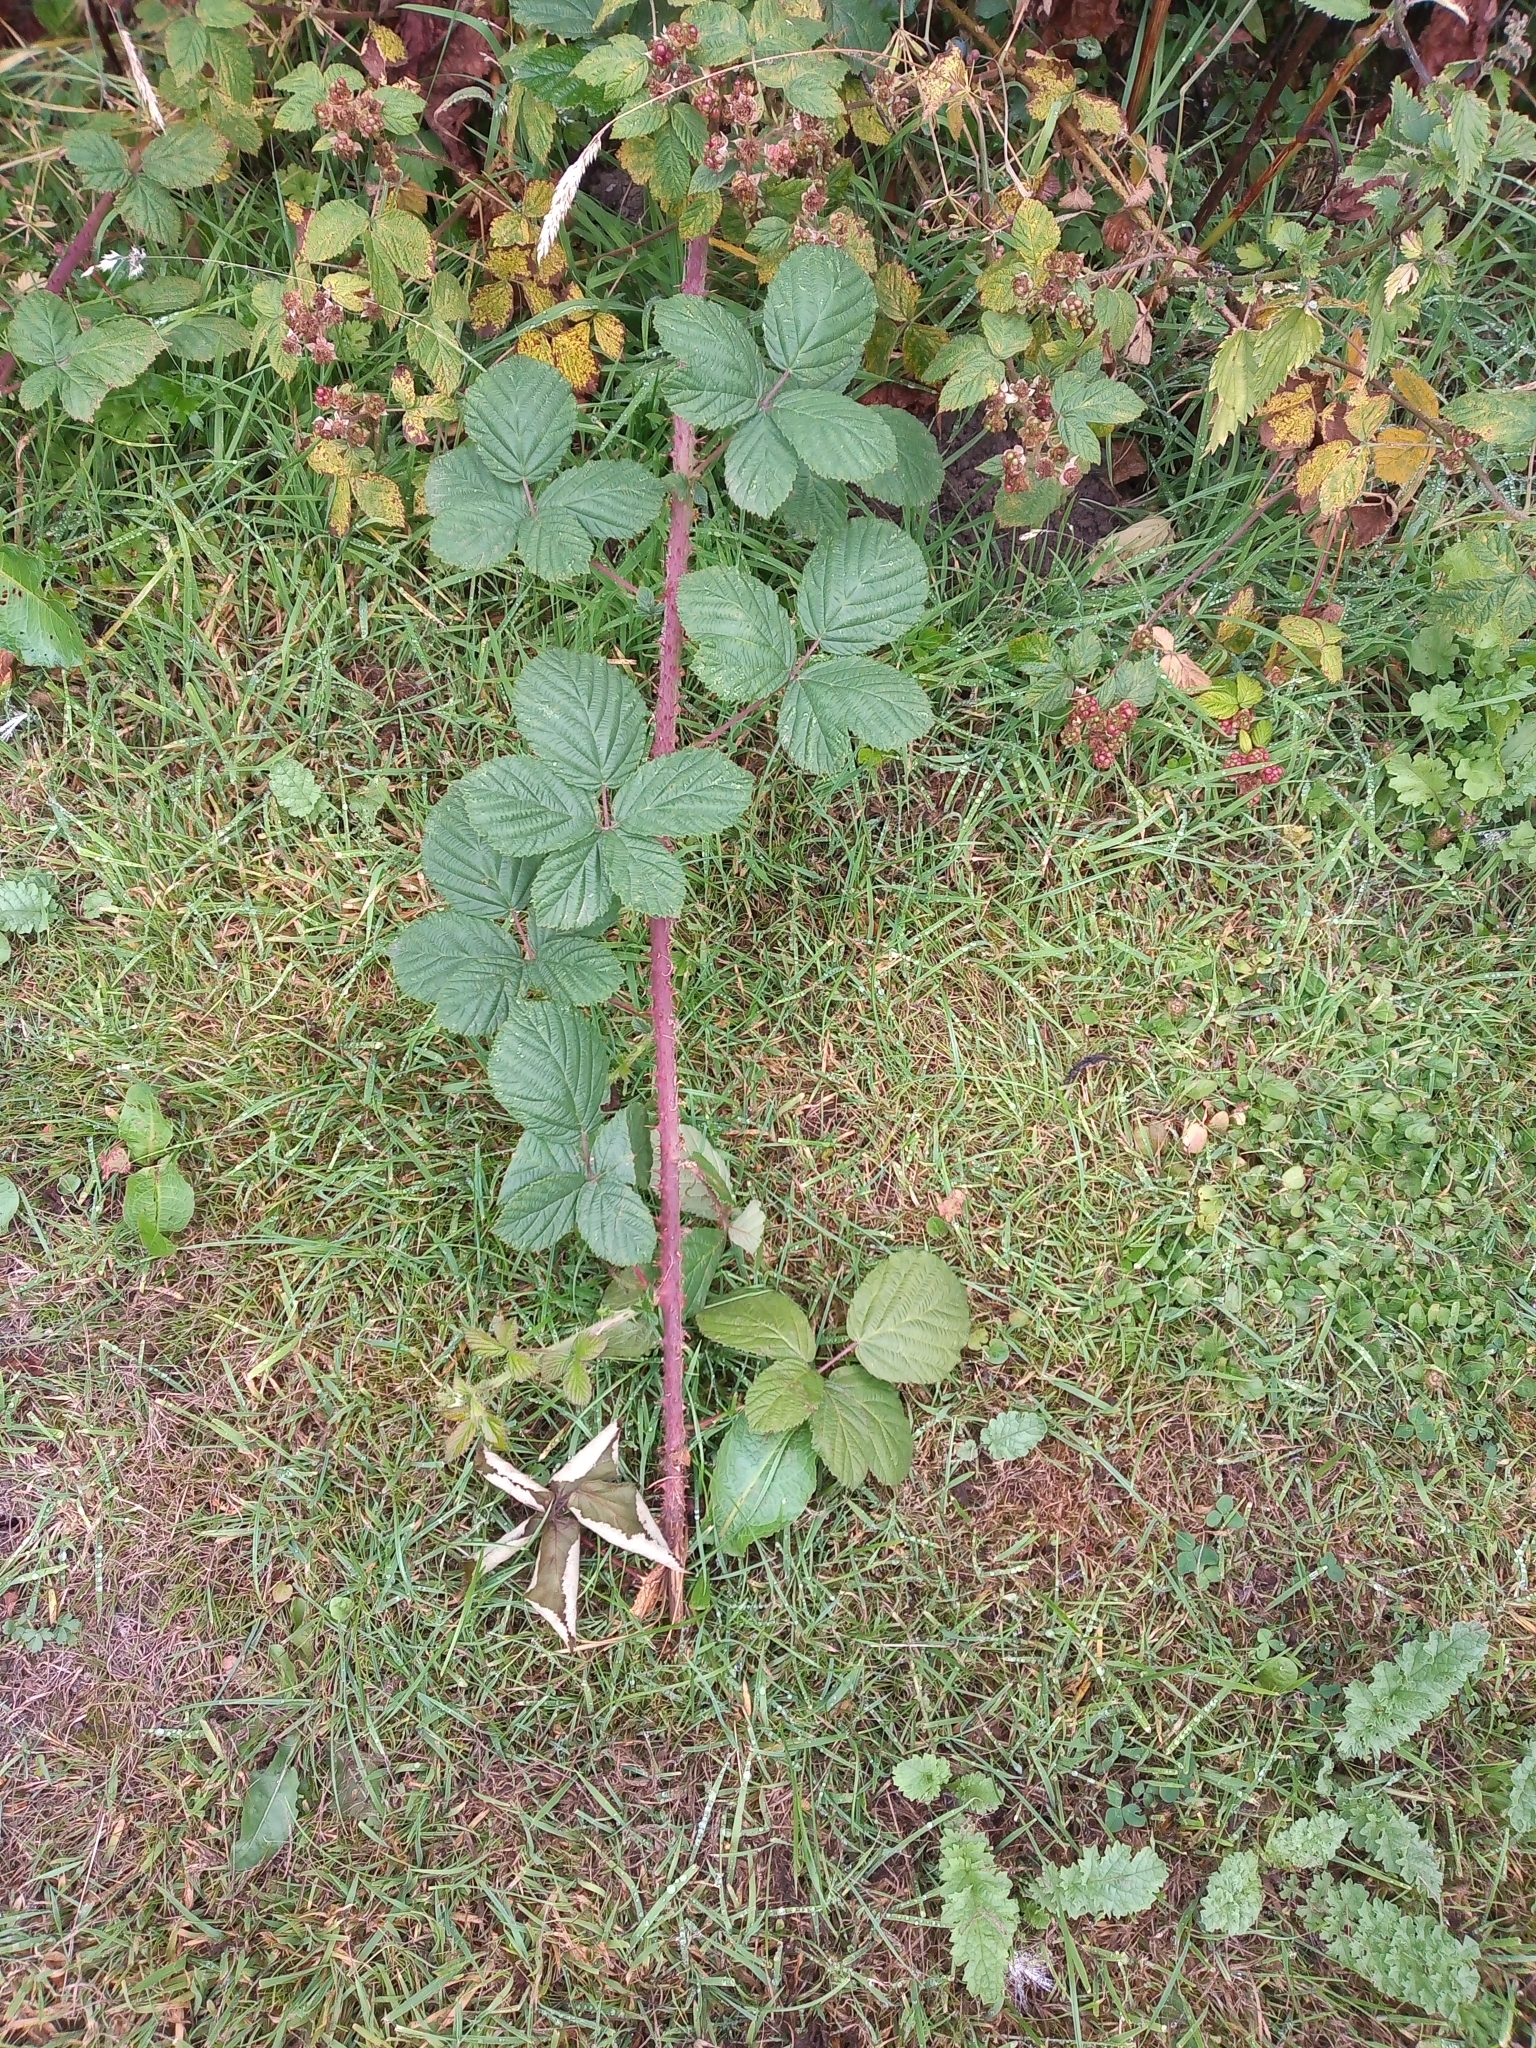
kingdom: Plantae
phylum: Tracheophyta
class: Magnoliopsida
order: Rosales
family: Rosaceae
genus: Rubus
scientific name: Rubus horrefactus
